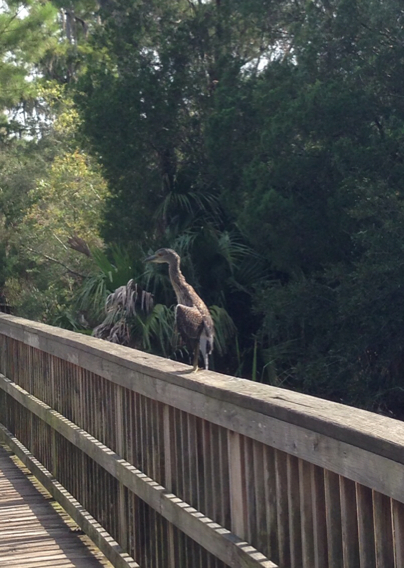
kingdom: Animalia
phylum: Chordata
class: Aves
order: Pelecaniformes
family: Ardeidae
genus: Nyctanassa
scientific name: Nyctanassa violacea
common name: Yellow-crowned night heron
